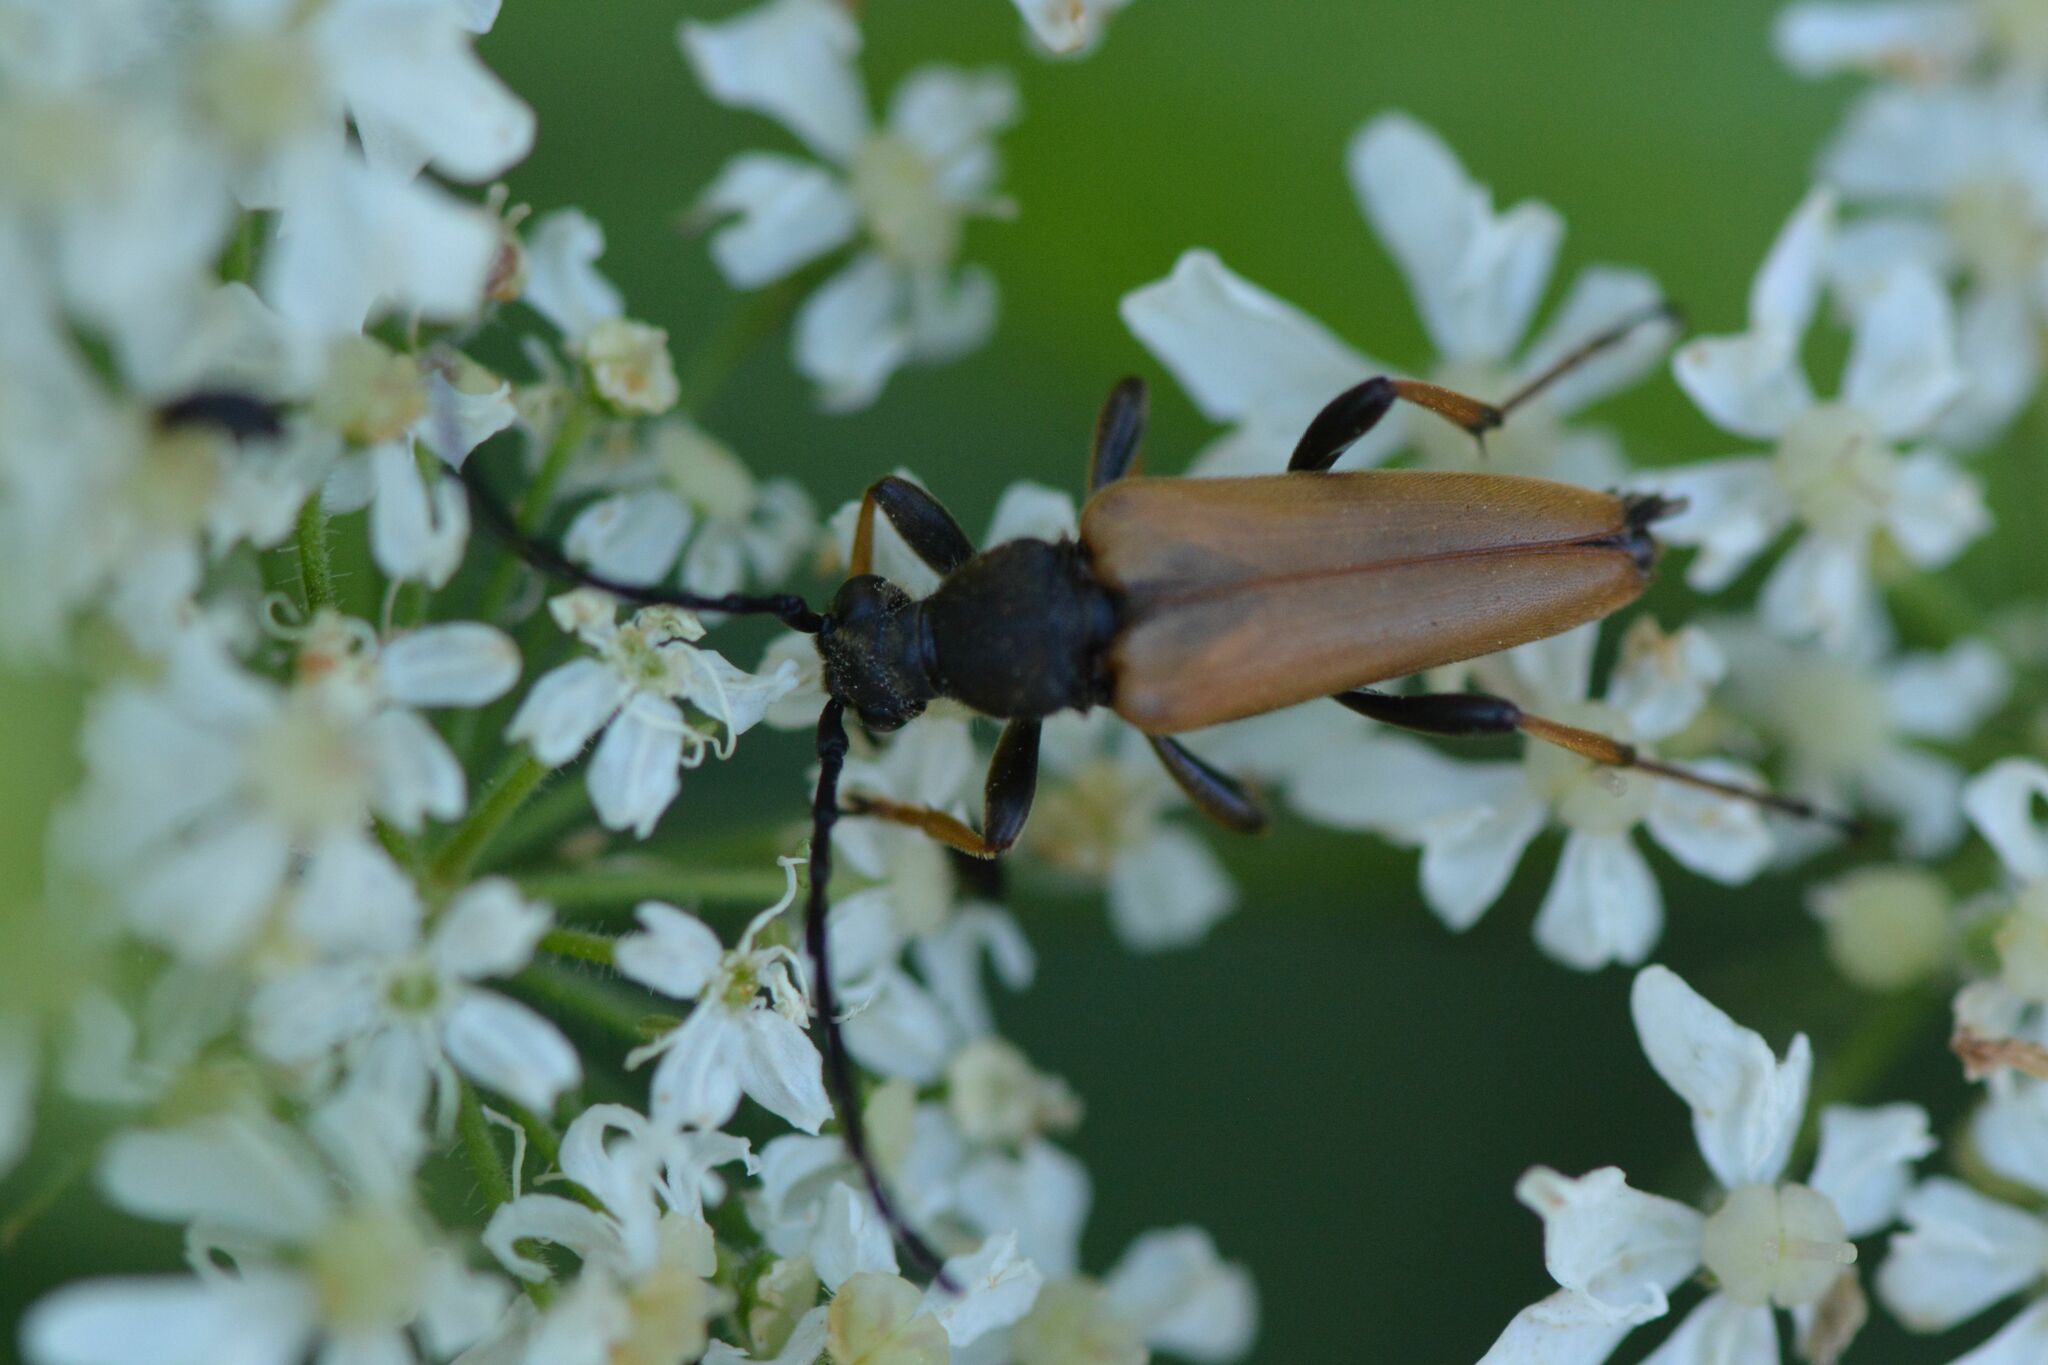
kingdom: Animalia
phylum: Arthropoda
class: Insecta
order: Coleoptera
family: Cerambycidae
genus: Stictoleptura
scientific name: Stictoleptura rubra
